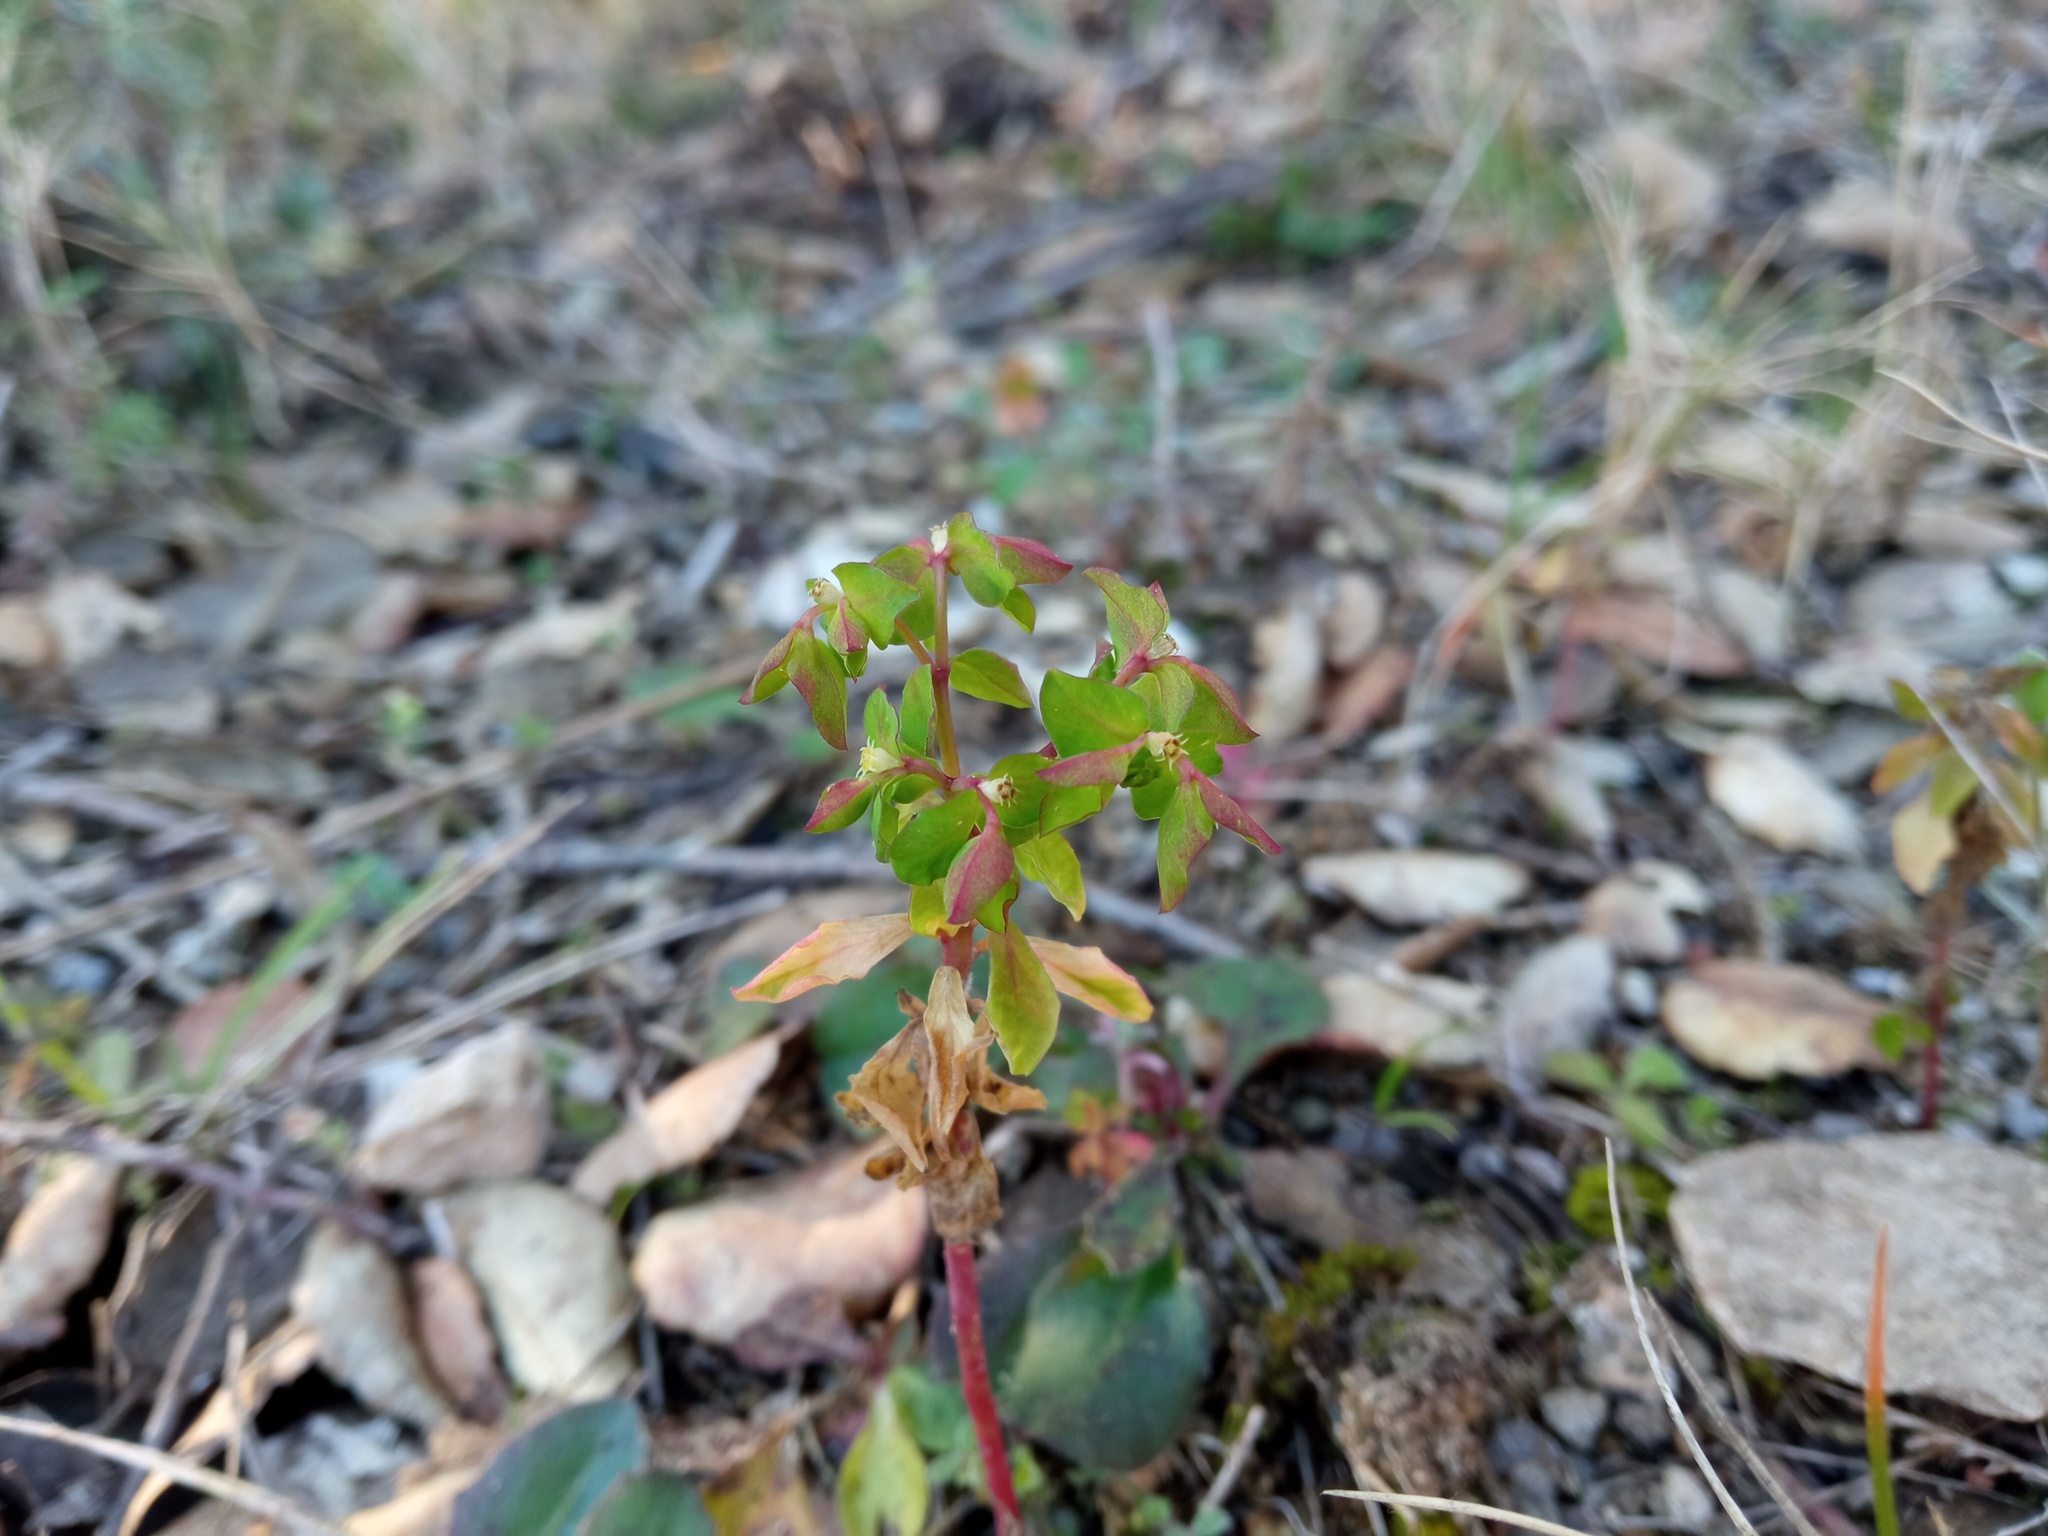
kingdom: Plantae
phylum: Tracheophyta
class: Magnoliopsida
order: Malpighiales
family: Euphorbiaceae
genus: Euphorbia
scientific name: Euphorbia peplus
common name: Petty spurge
